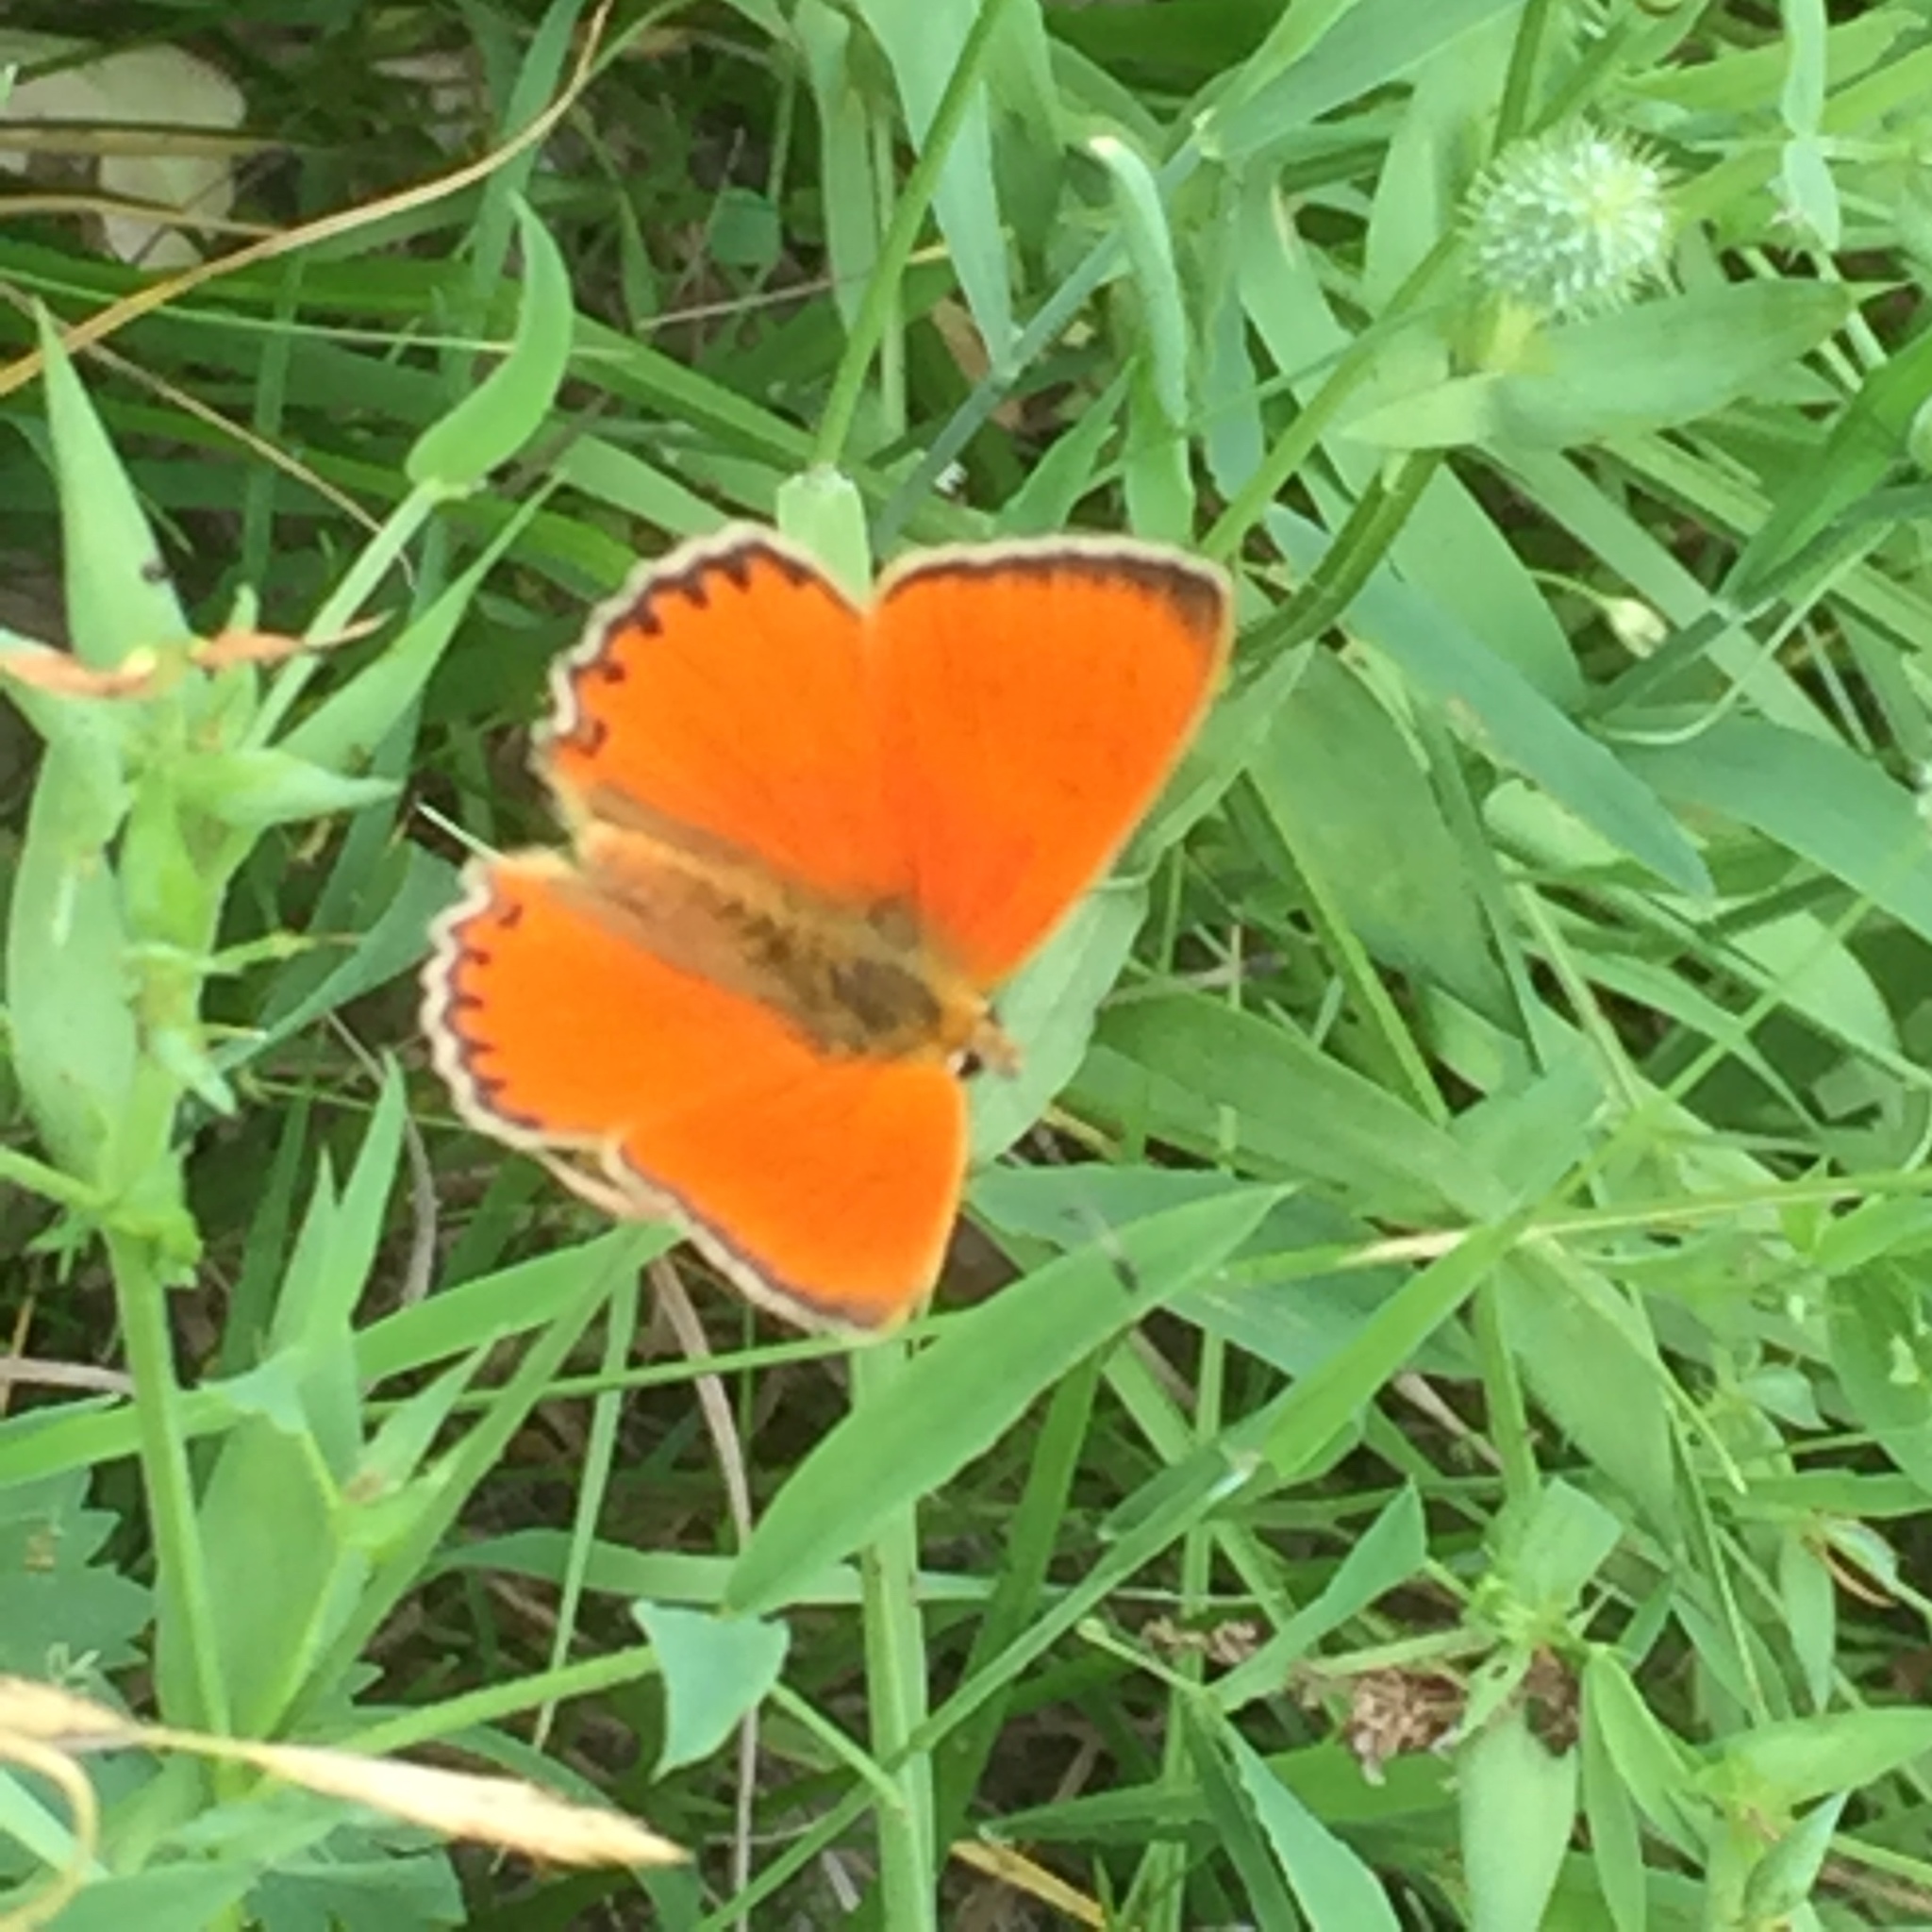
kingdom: Animalia
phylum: Arthropoda
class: Insecta
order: Lepidoptera
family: Lycaenidae
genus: Lycaena
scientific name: Lycaena virgaureae
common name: Scarce copper
